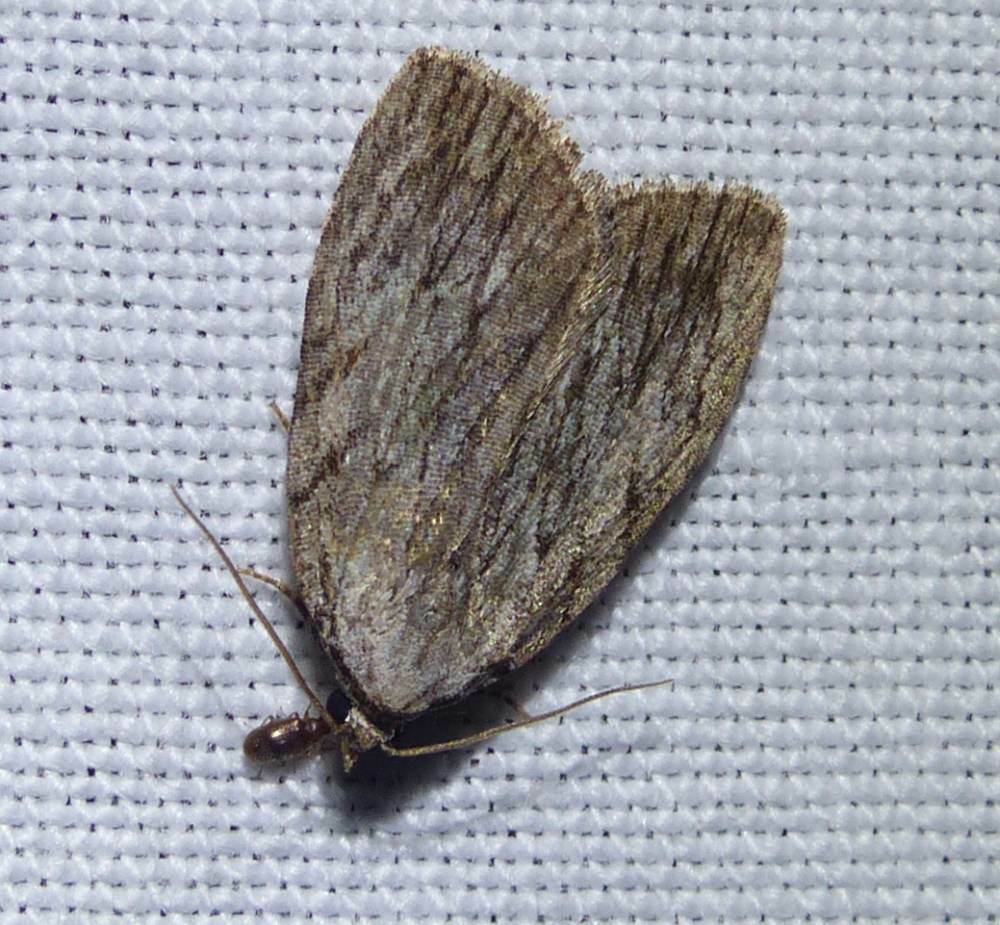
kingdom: Animalia
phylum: Arthropoda
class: Insecta
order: Lepidoptera
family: Noctuidae
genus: Balsa
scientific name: Balsa tristrigella
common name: Three-lined balsa moth
